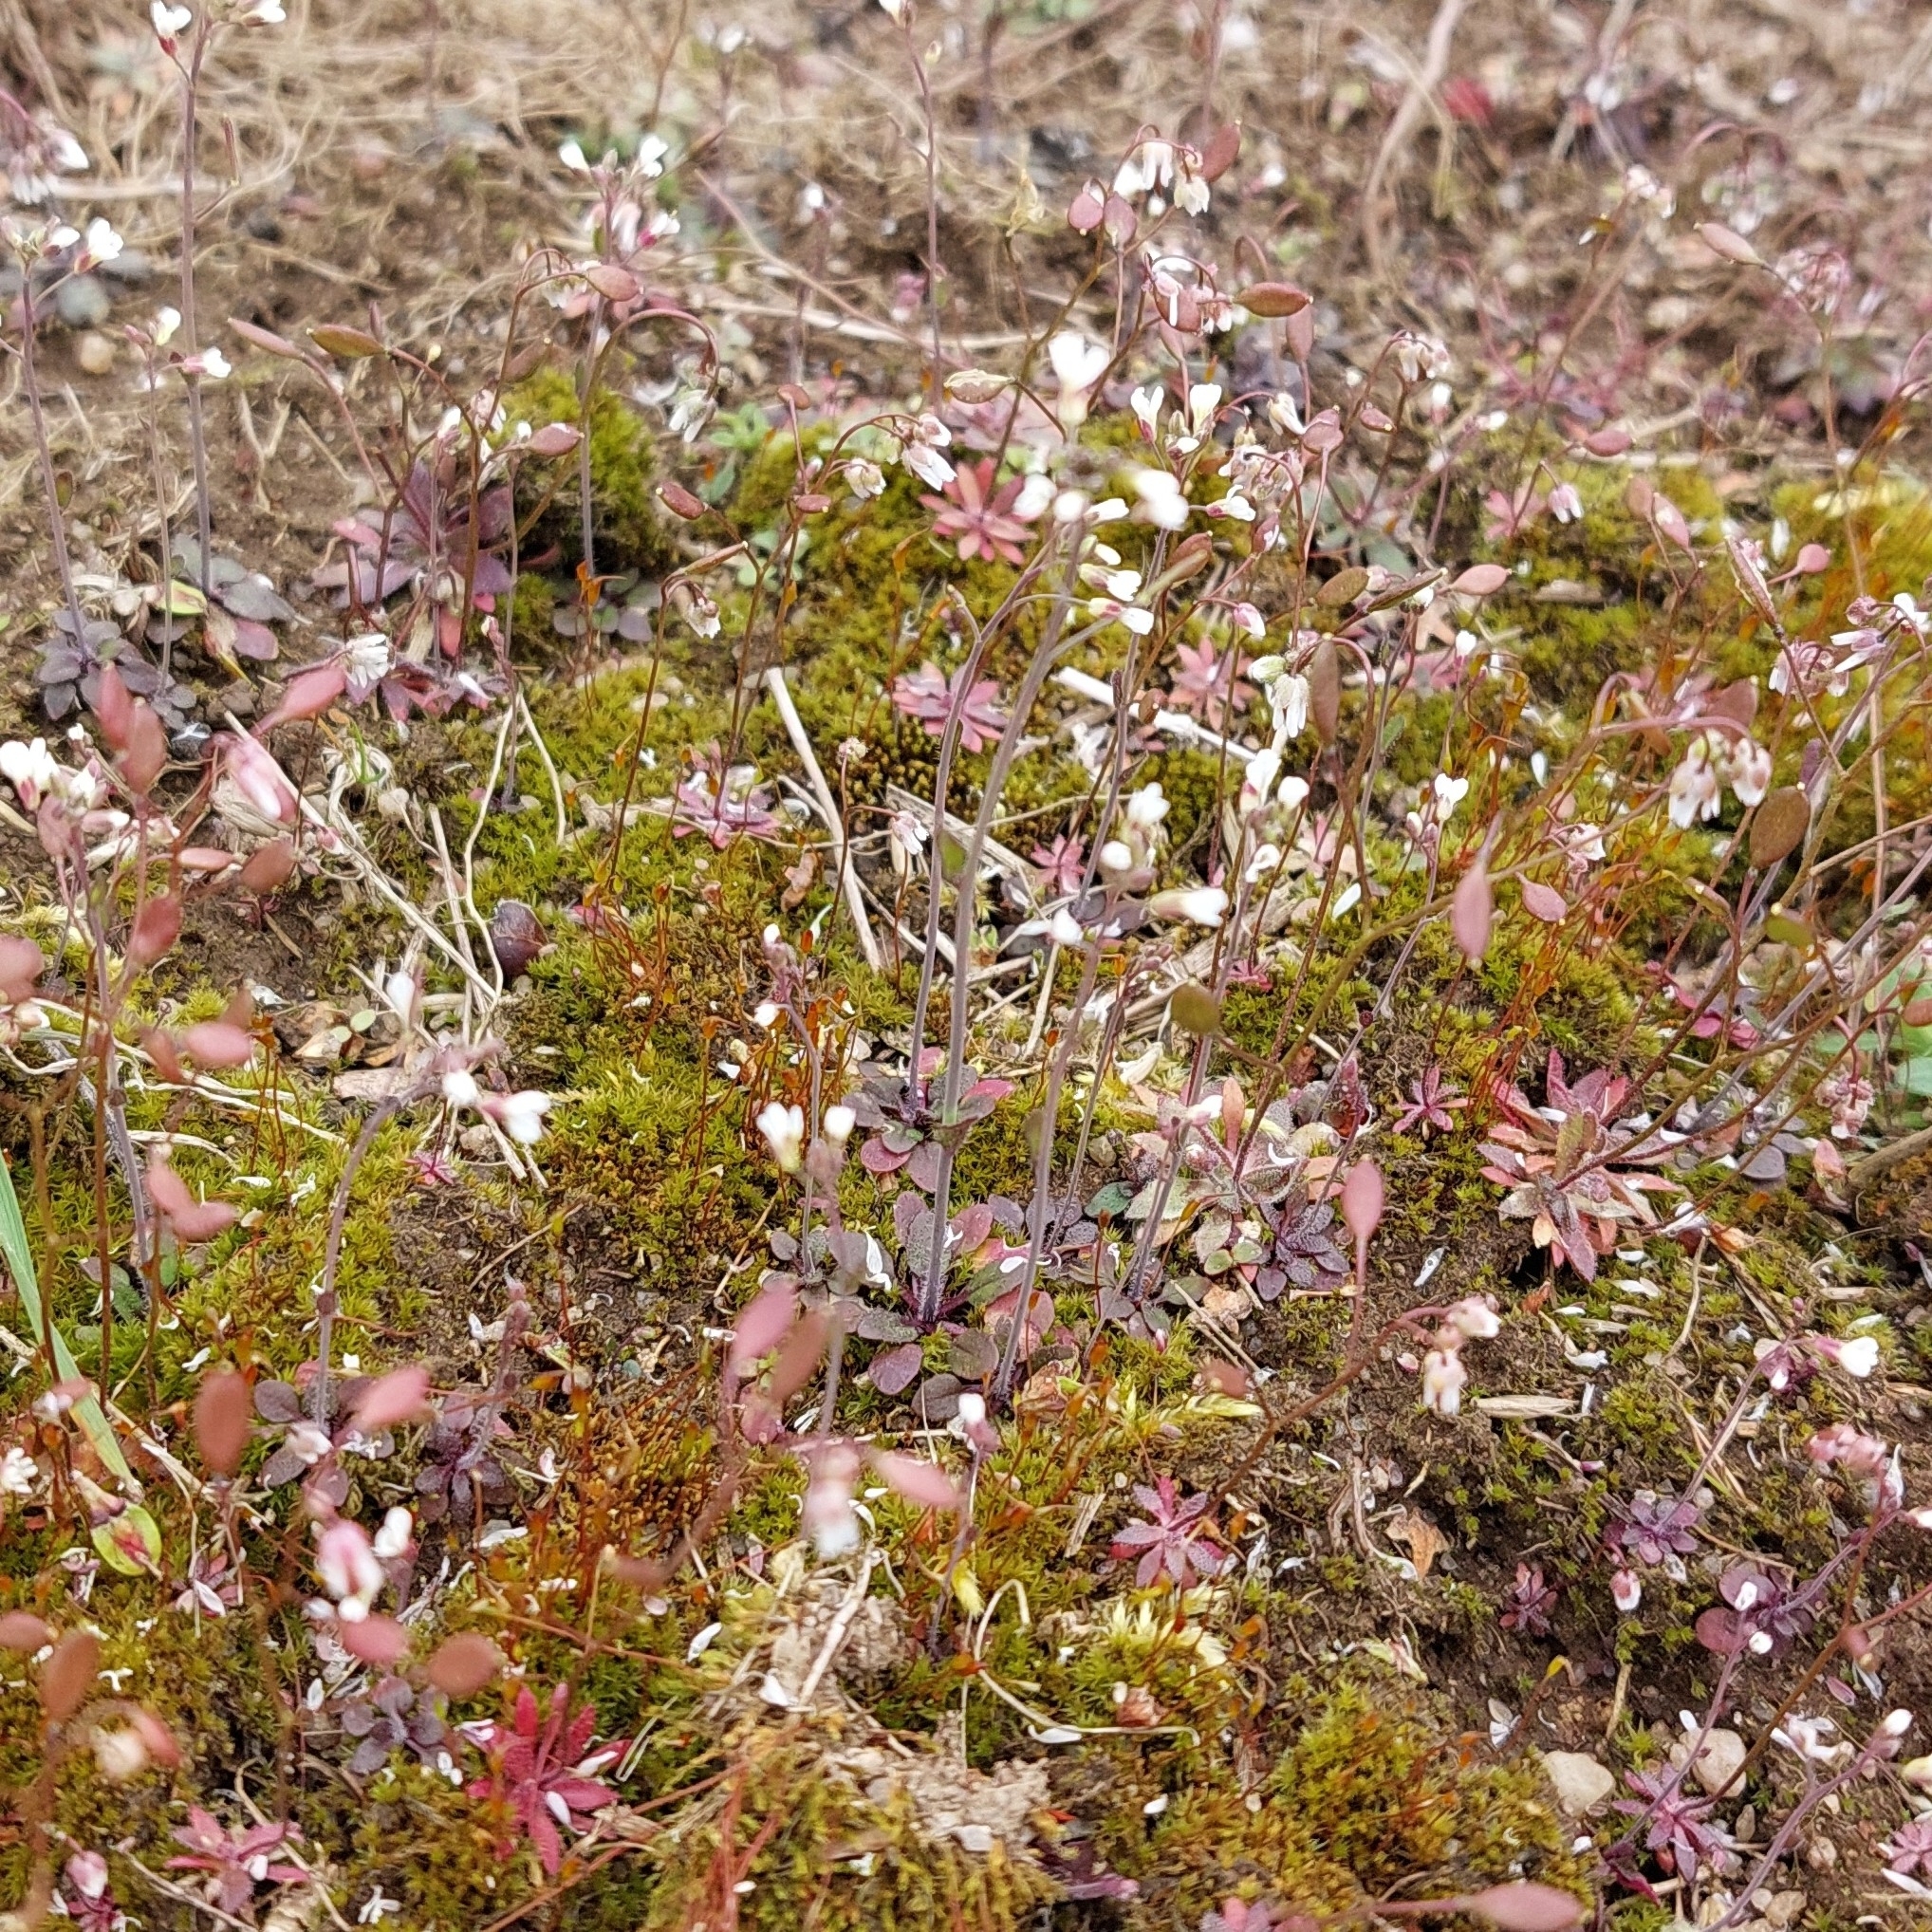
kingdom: Plantae
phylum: Tracheophyta
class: Magnoliopsida
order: Brassicales
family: Brassicaceae
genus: Draba
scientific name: Draba verna
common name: Spring draba
